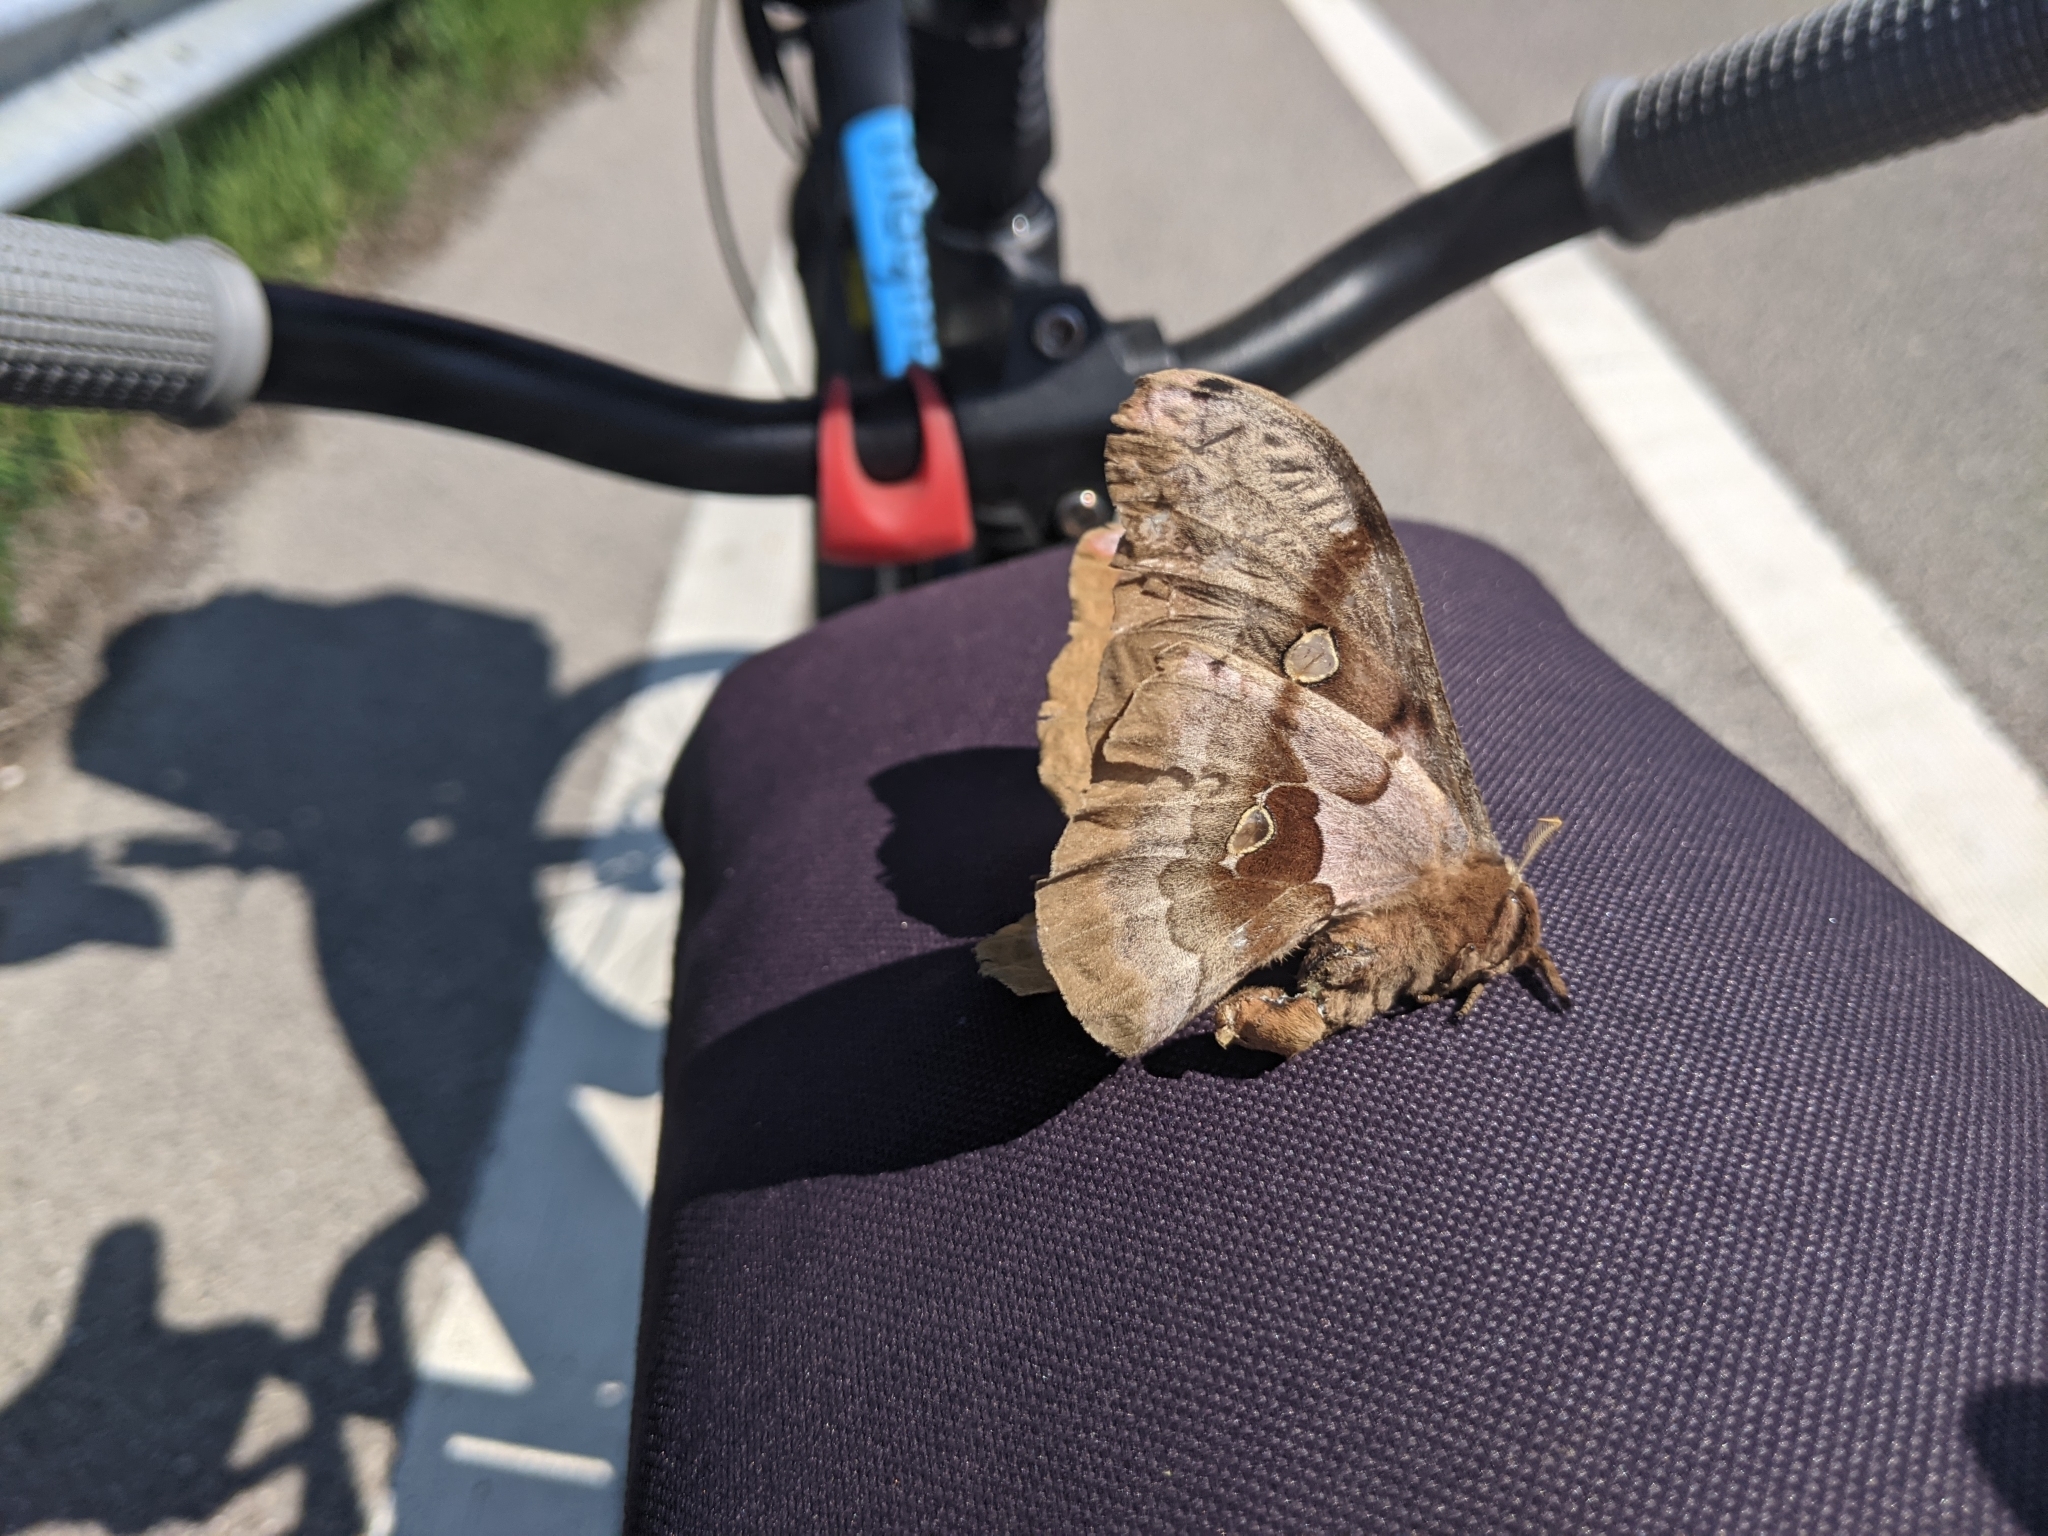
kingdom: Animalia
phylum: Arthropoda
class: Insecta
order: Lepidoptera
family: Saturniidae
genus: Antheraea
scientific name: Antheraea polyphemus
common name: Polyphemus moth
